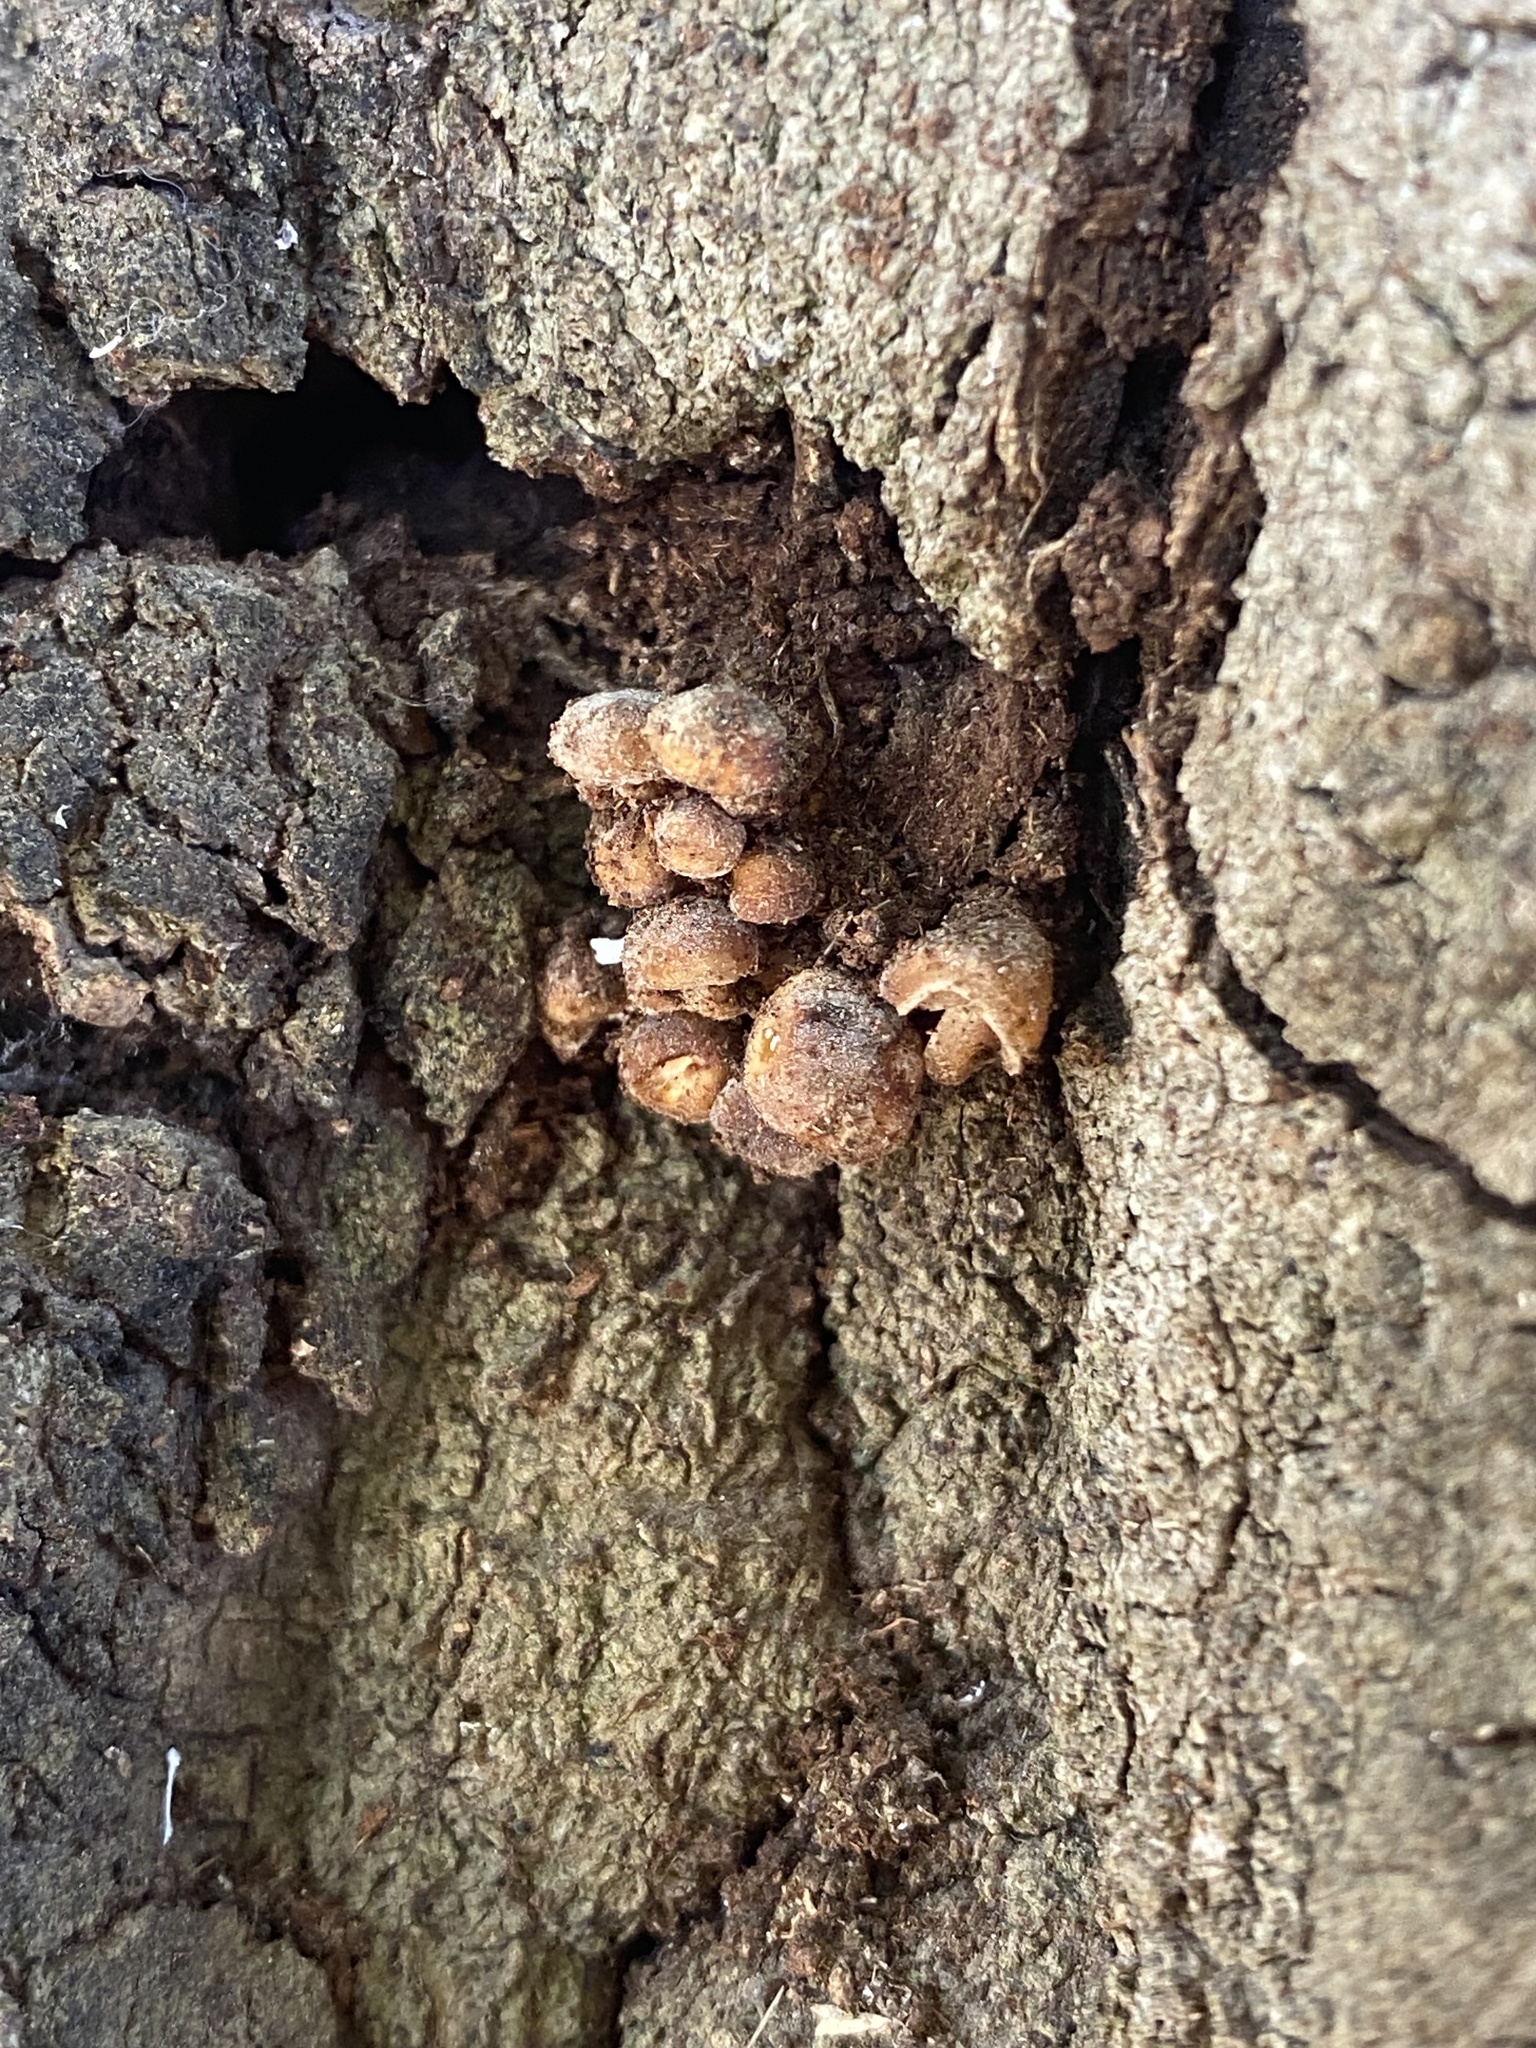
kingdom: Fungi
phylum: Basidiomycota
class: Agaricomycetes
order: Agaricales
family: Physalacriaceae
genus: Flammulina
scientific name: Flammulina velutipes
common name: Velvet shank
